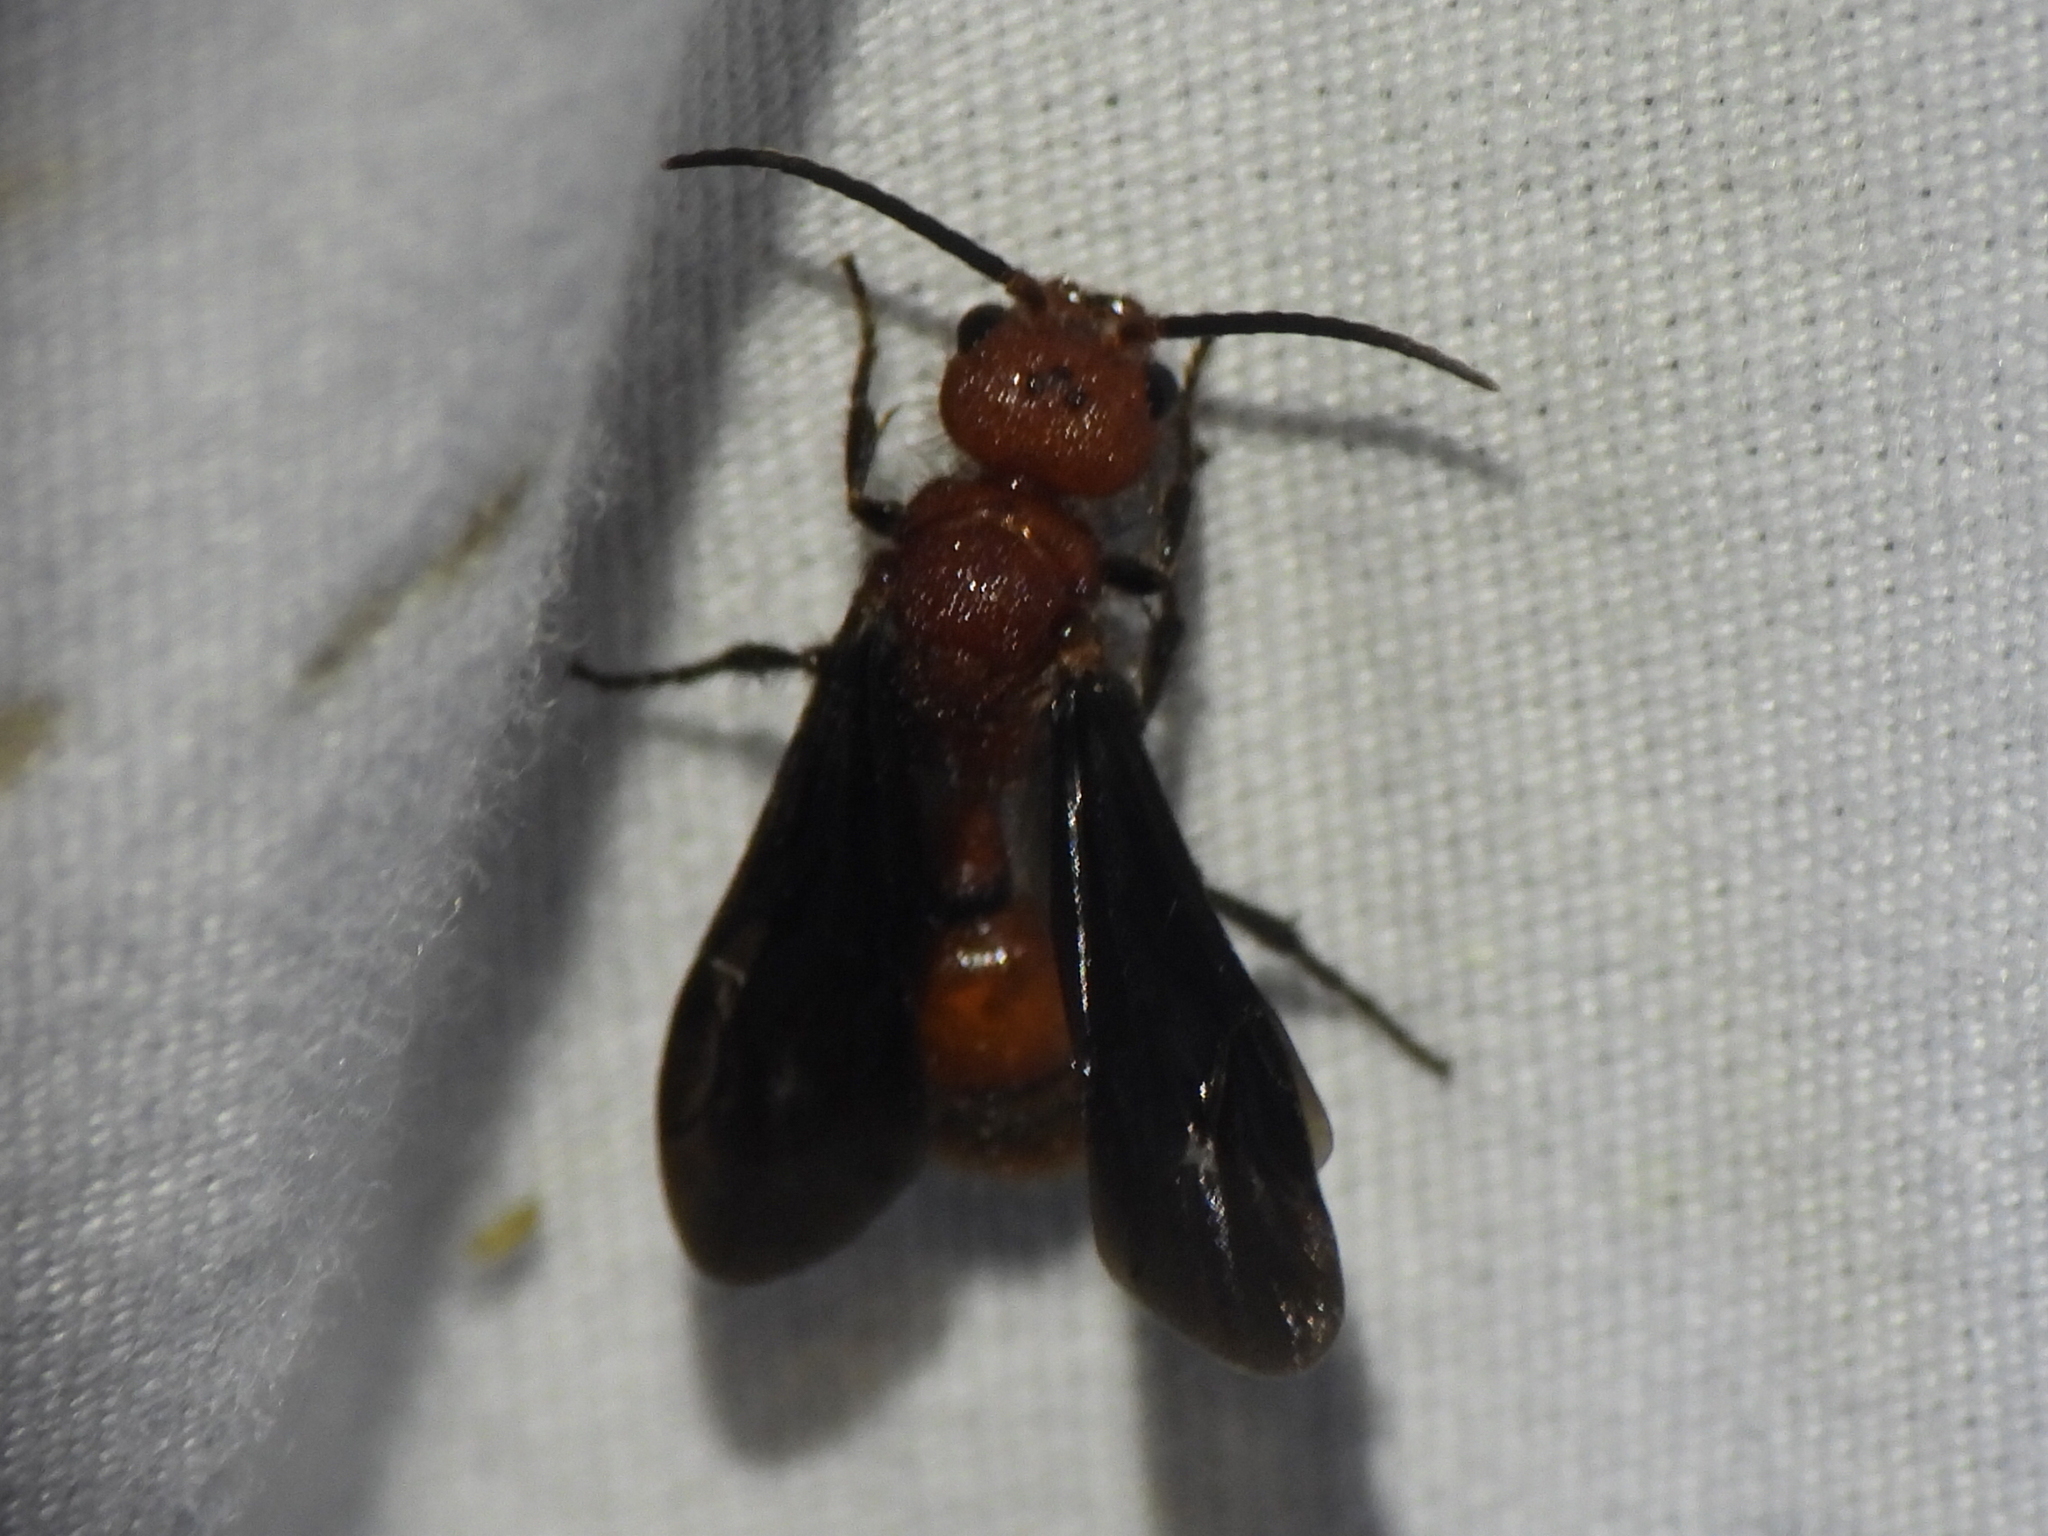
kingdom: Animalia
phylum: Arthropoda
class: Insecta
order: Hymenoptera
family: Mutillidae
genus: Sphaeropthalma
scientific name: Sphaeropthalma
